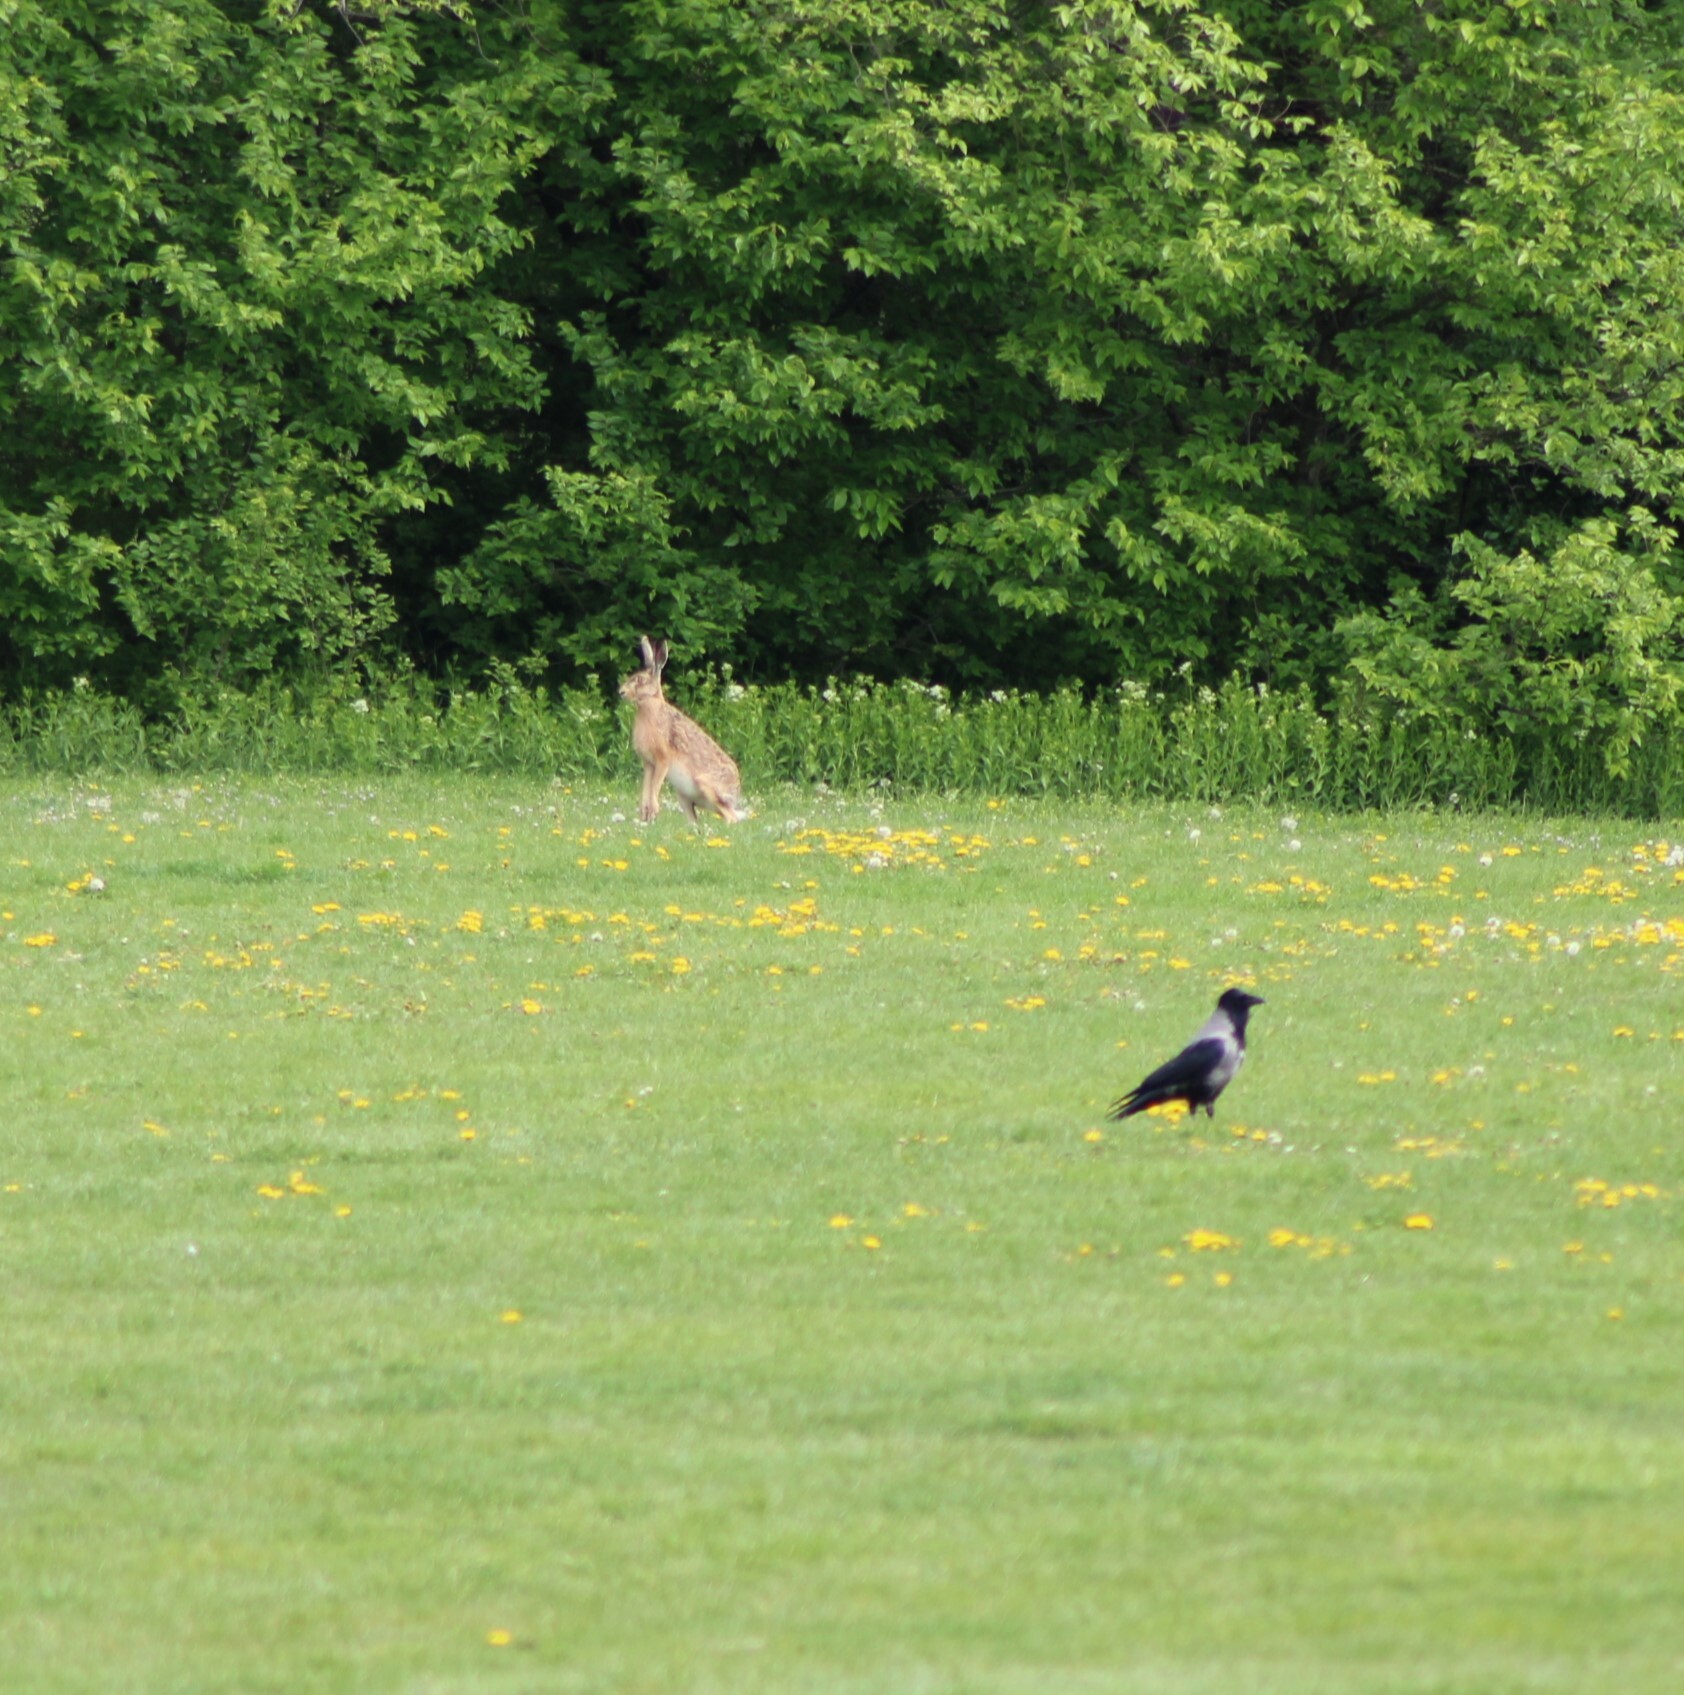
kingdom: Animalia
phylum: Chordata
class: Mammalia
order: Lagomorpha
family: Leporidae
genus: Lepus
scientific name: Lepus europaeus
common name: European hare
